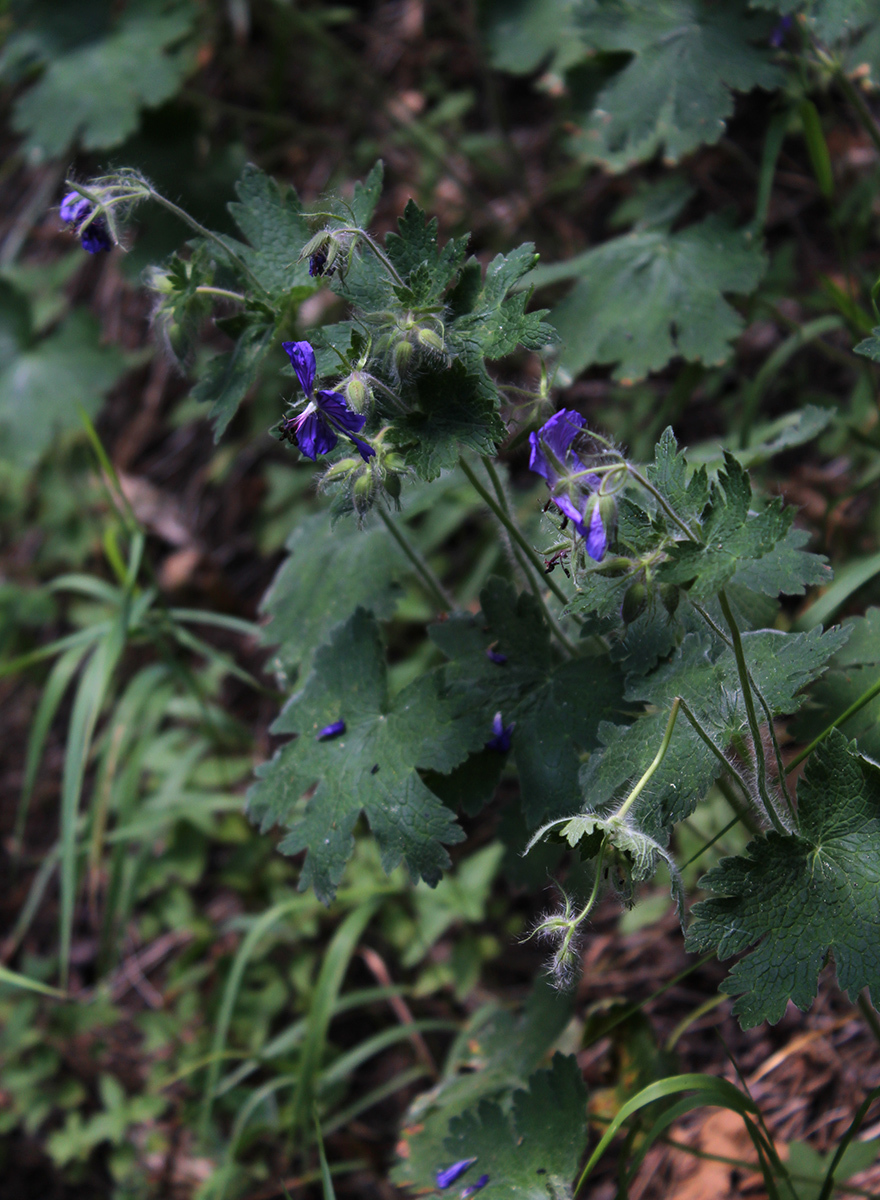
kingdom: Plantae
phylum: Tracheophyta
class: Magnoliopsida
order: Geraniales
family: Geraniaceae
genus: Geranium
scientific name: Geranium platypetalum
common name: Glandular crane's-bill
